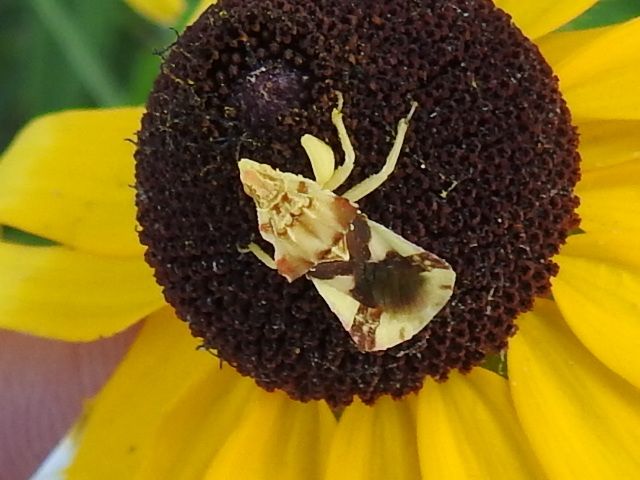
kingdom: Animalia
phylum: Arthropoda
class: Insecta
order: Hemiptera
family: Reduviidae
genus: Phymata
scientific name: Phymata americana
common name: Jagged ambush bug
